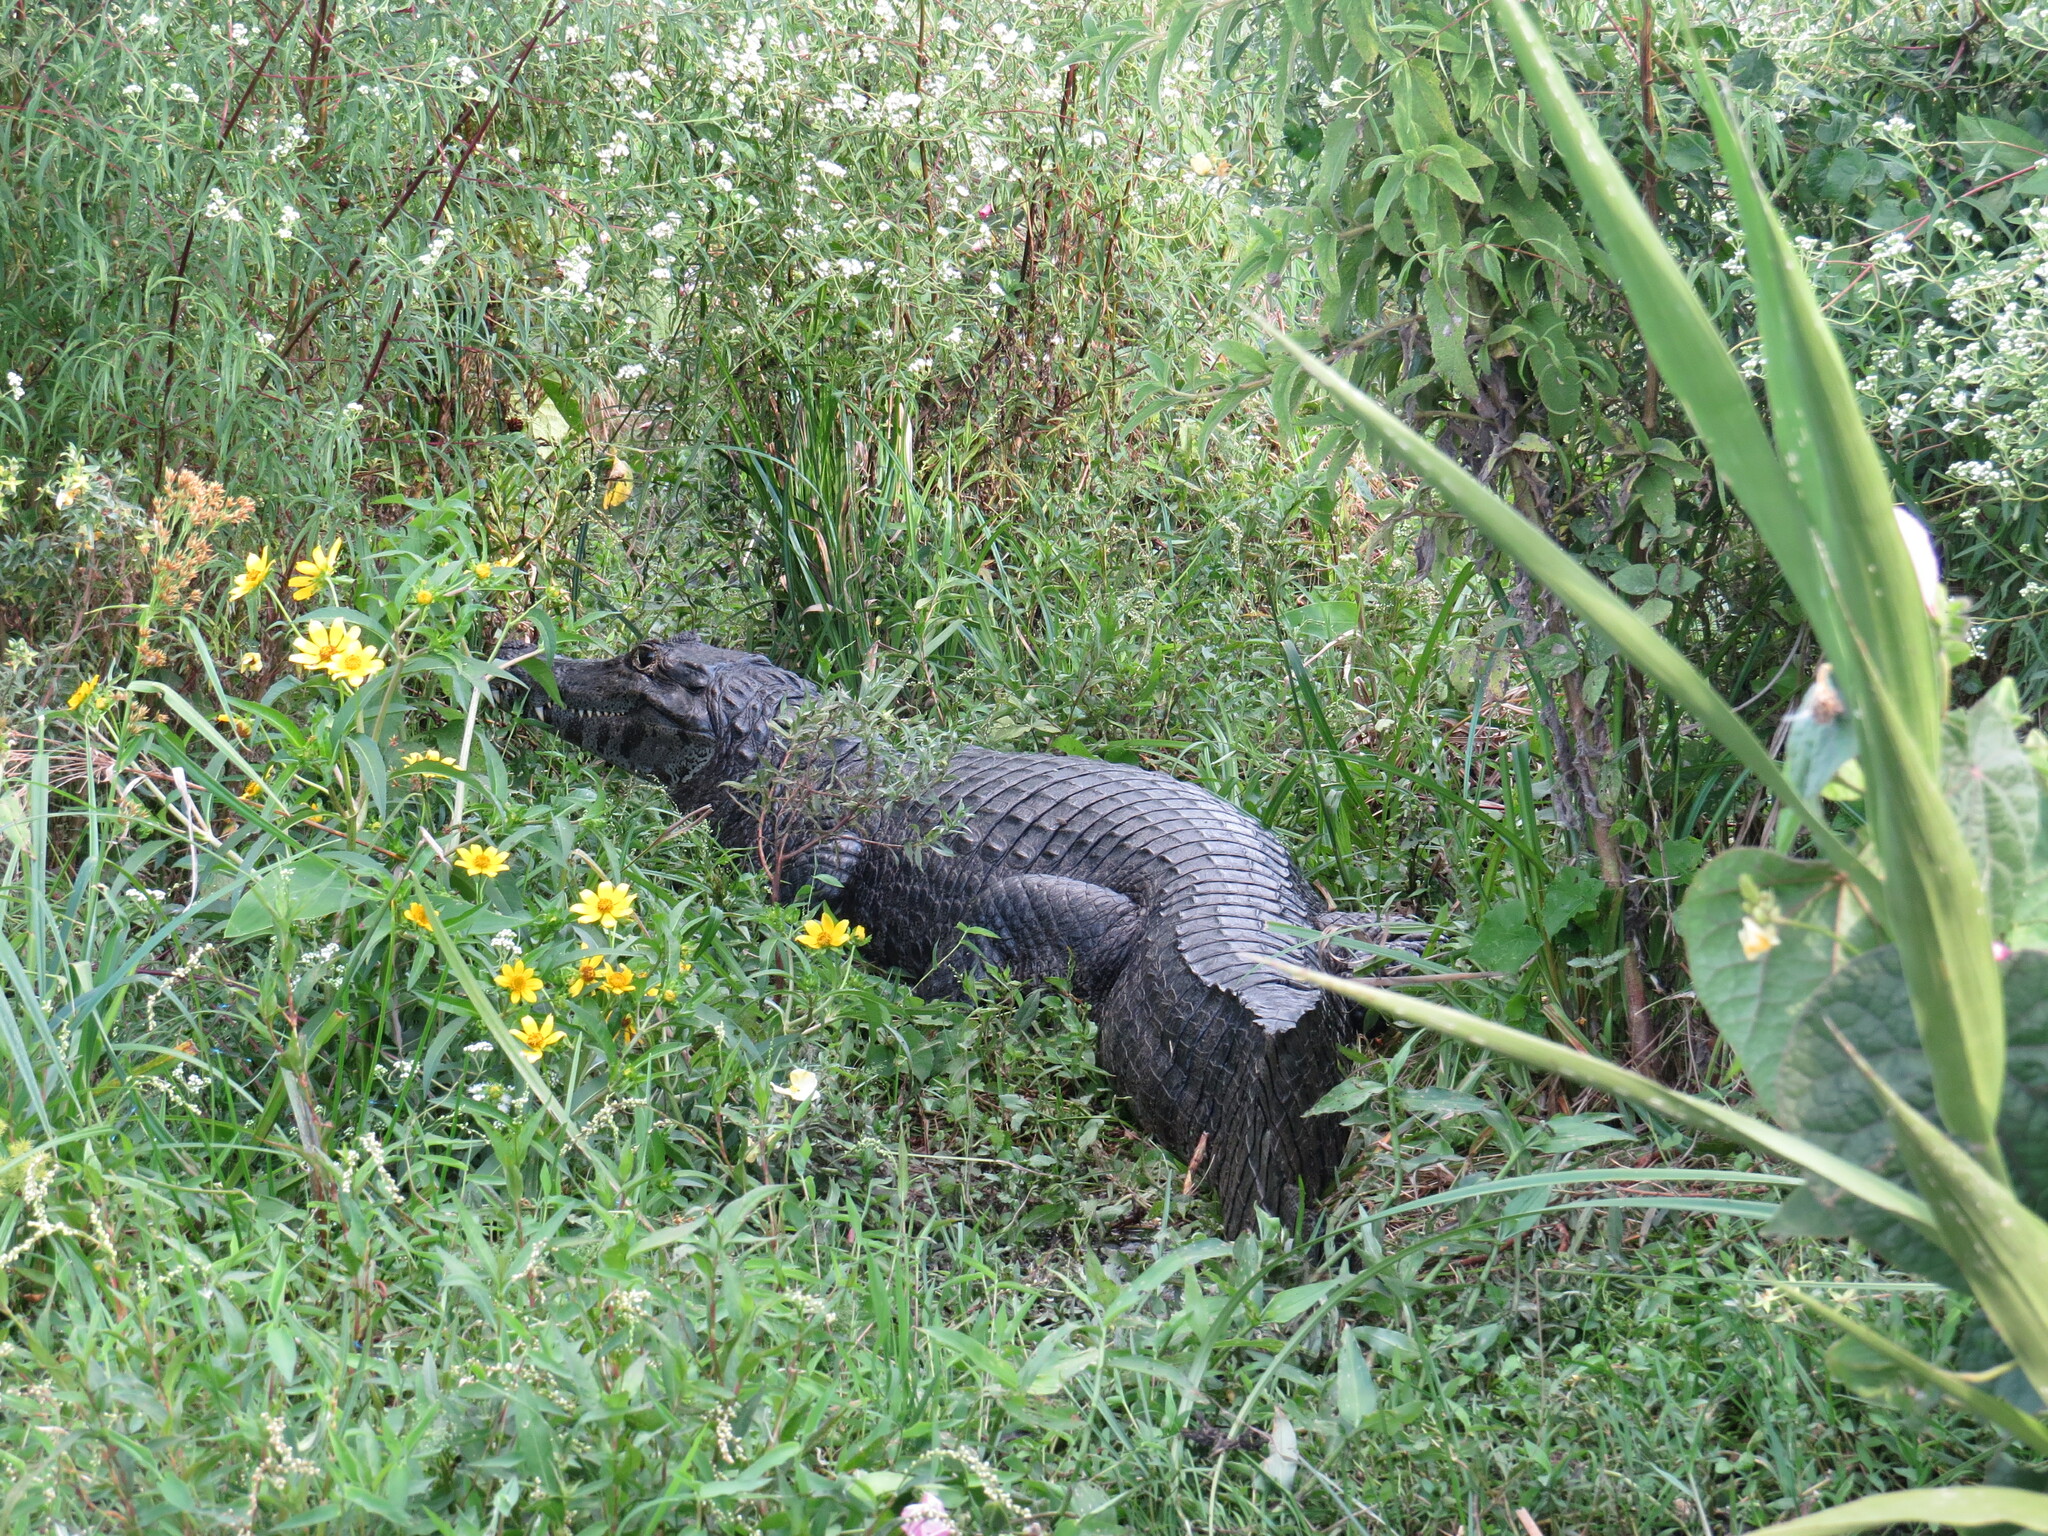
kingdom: Animalia
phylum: Chordata
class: Crocodylia
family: Alligatoridae
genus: Caiman
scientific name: Caiman latirostris
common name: Broad-snouted caiman
